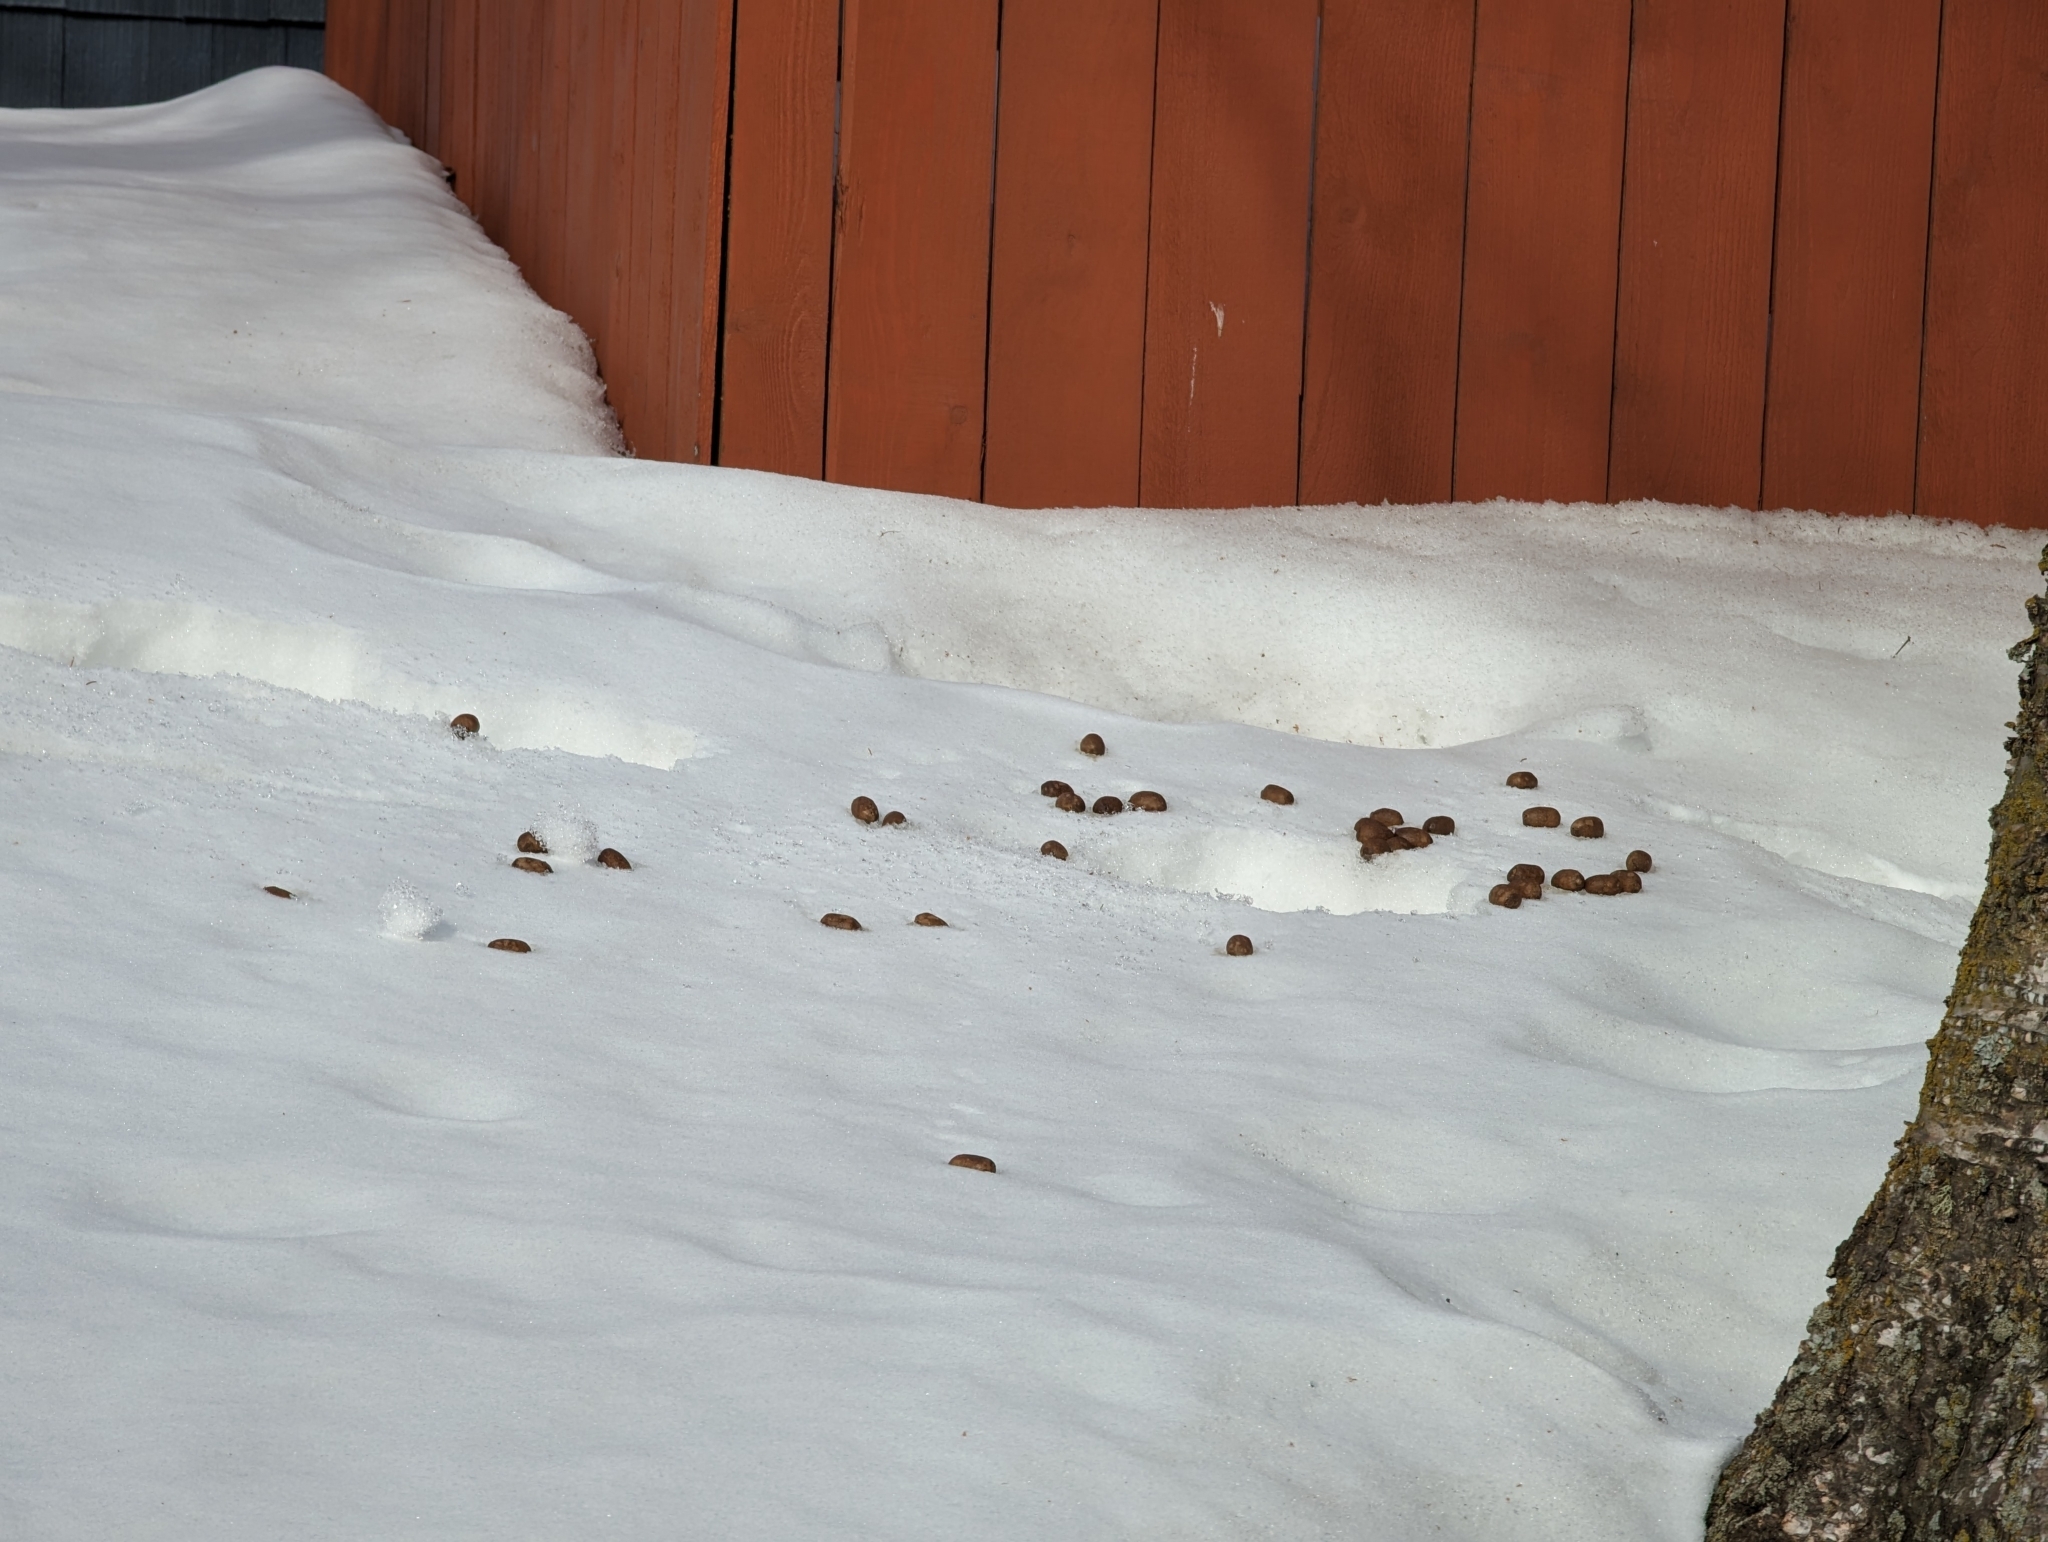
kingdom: Animalia
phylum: Chordata
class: Mammalia
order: Artiodactyla
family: Cervidae
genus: Alces
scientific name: Alces alces
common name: Moose
